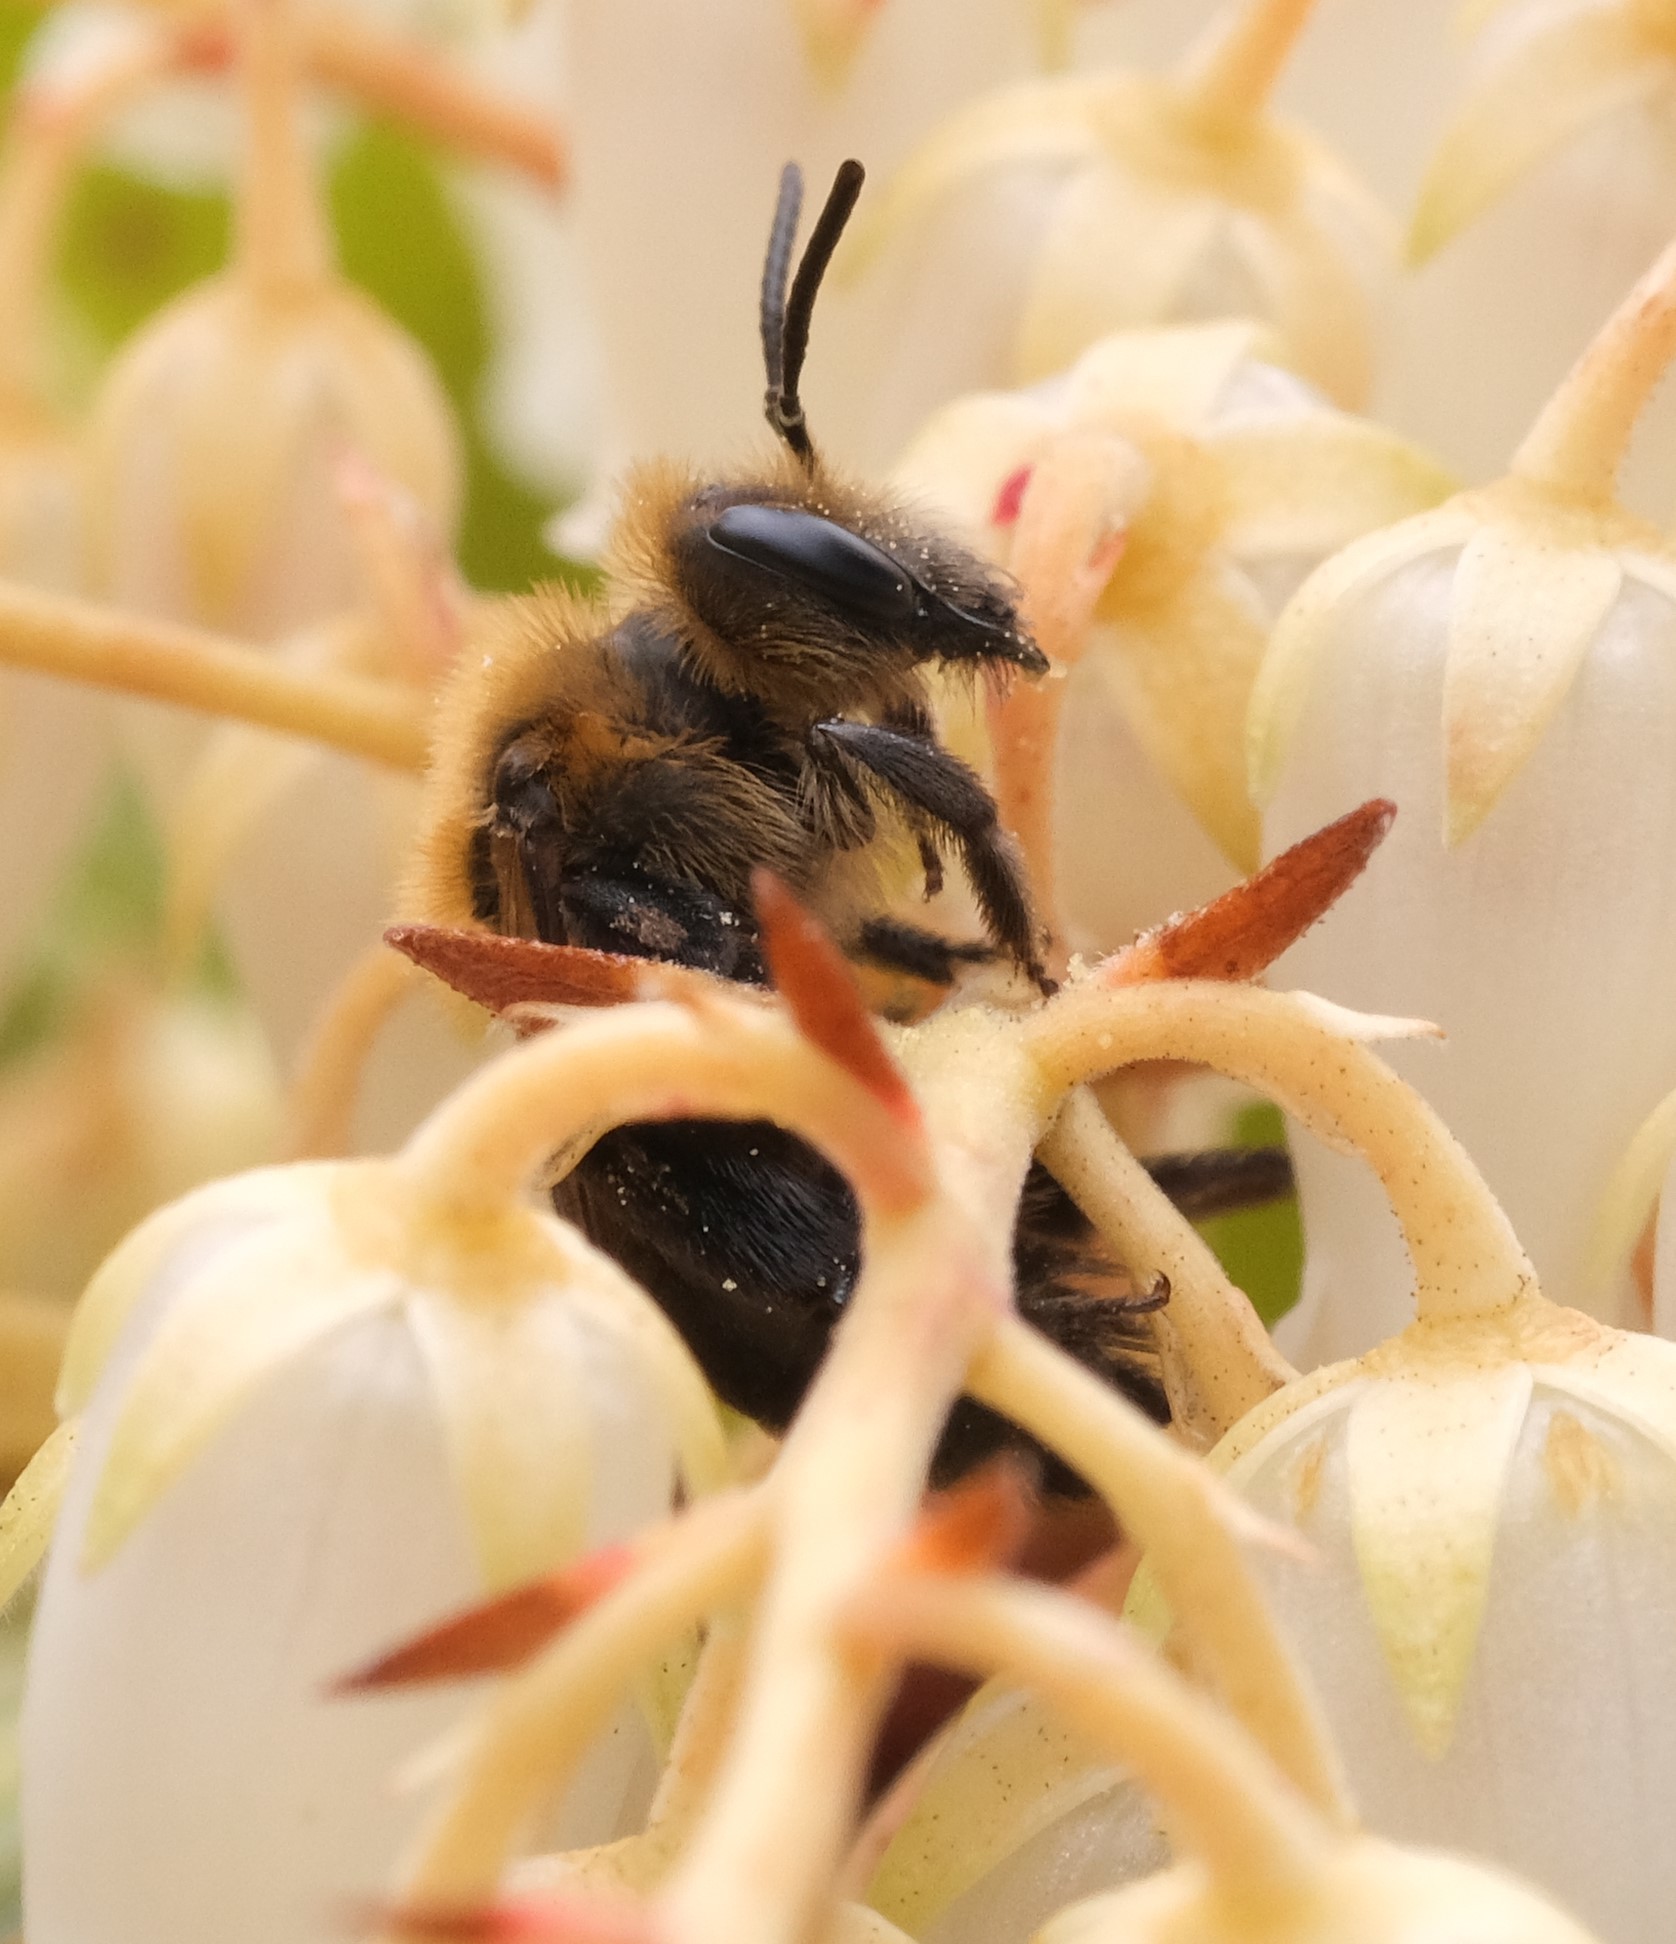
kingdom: Animalia
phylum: Arthropoda
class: Insecta
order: Hymenoptera
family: Andrenidae
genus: Andrena
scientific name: Andrena vicina
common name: Neighborly mining bee
